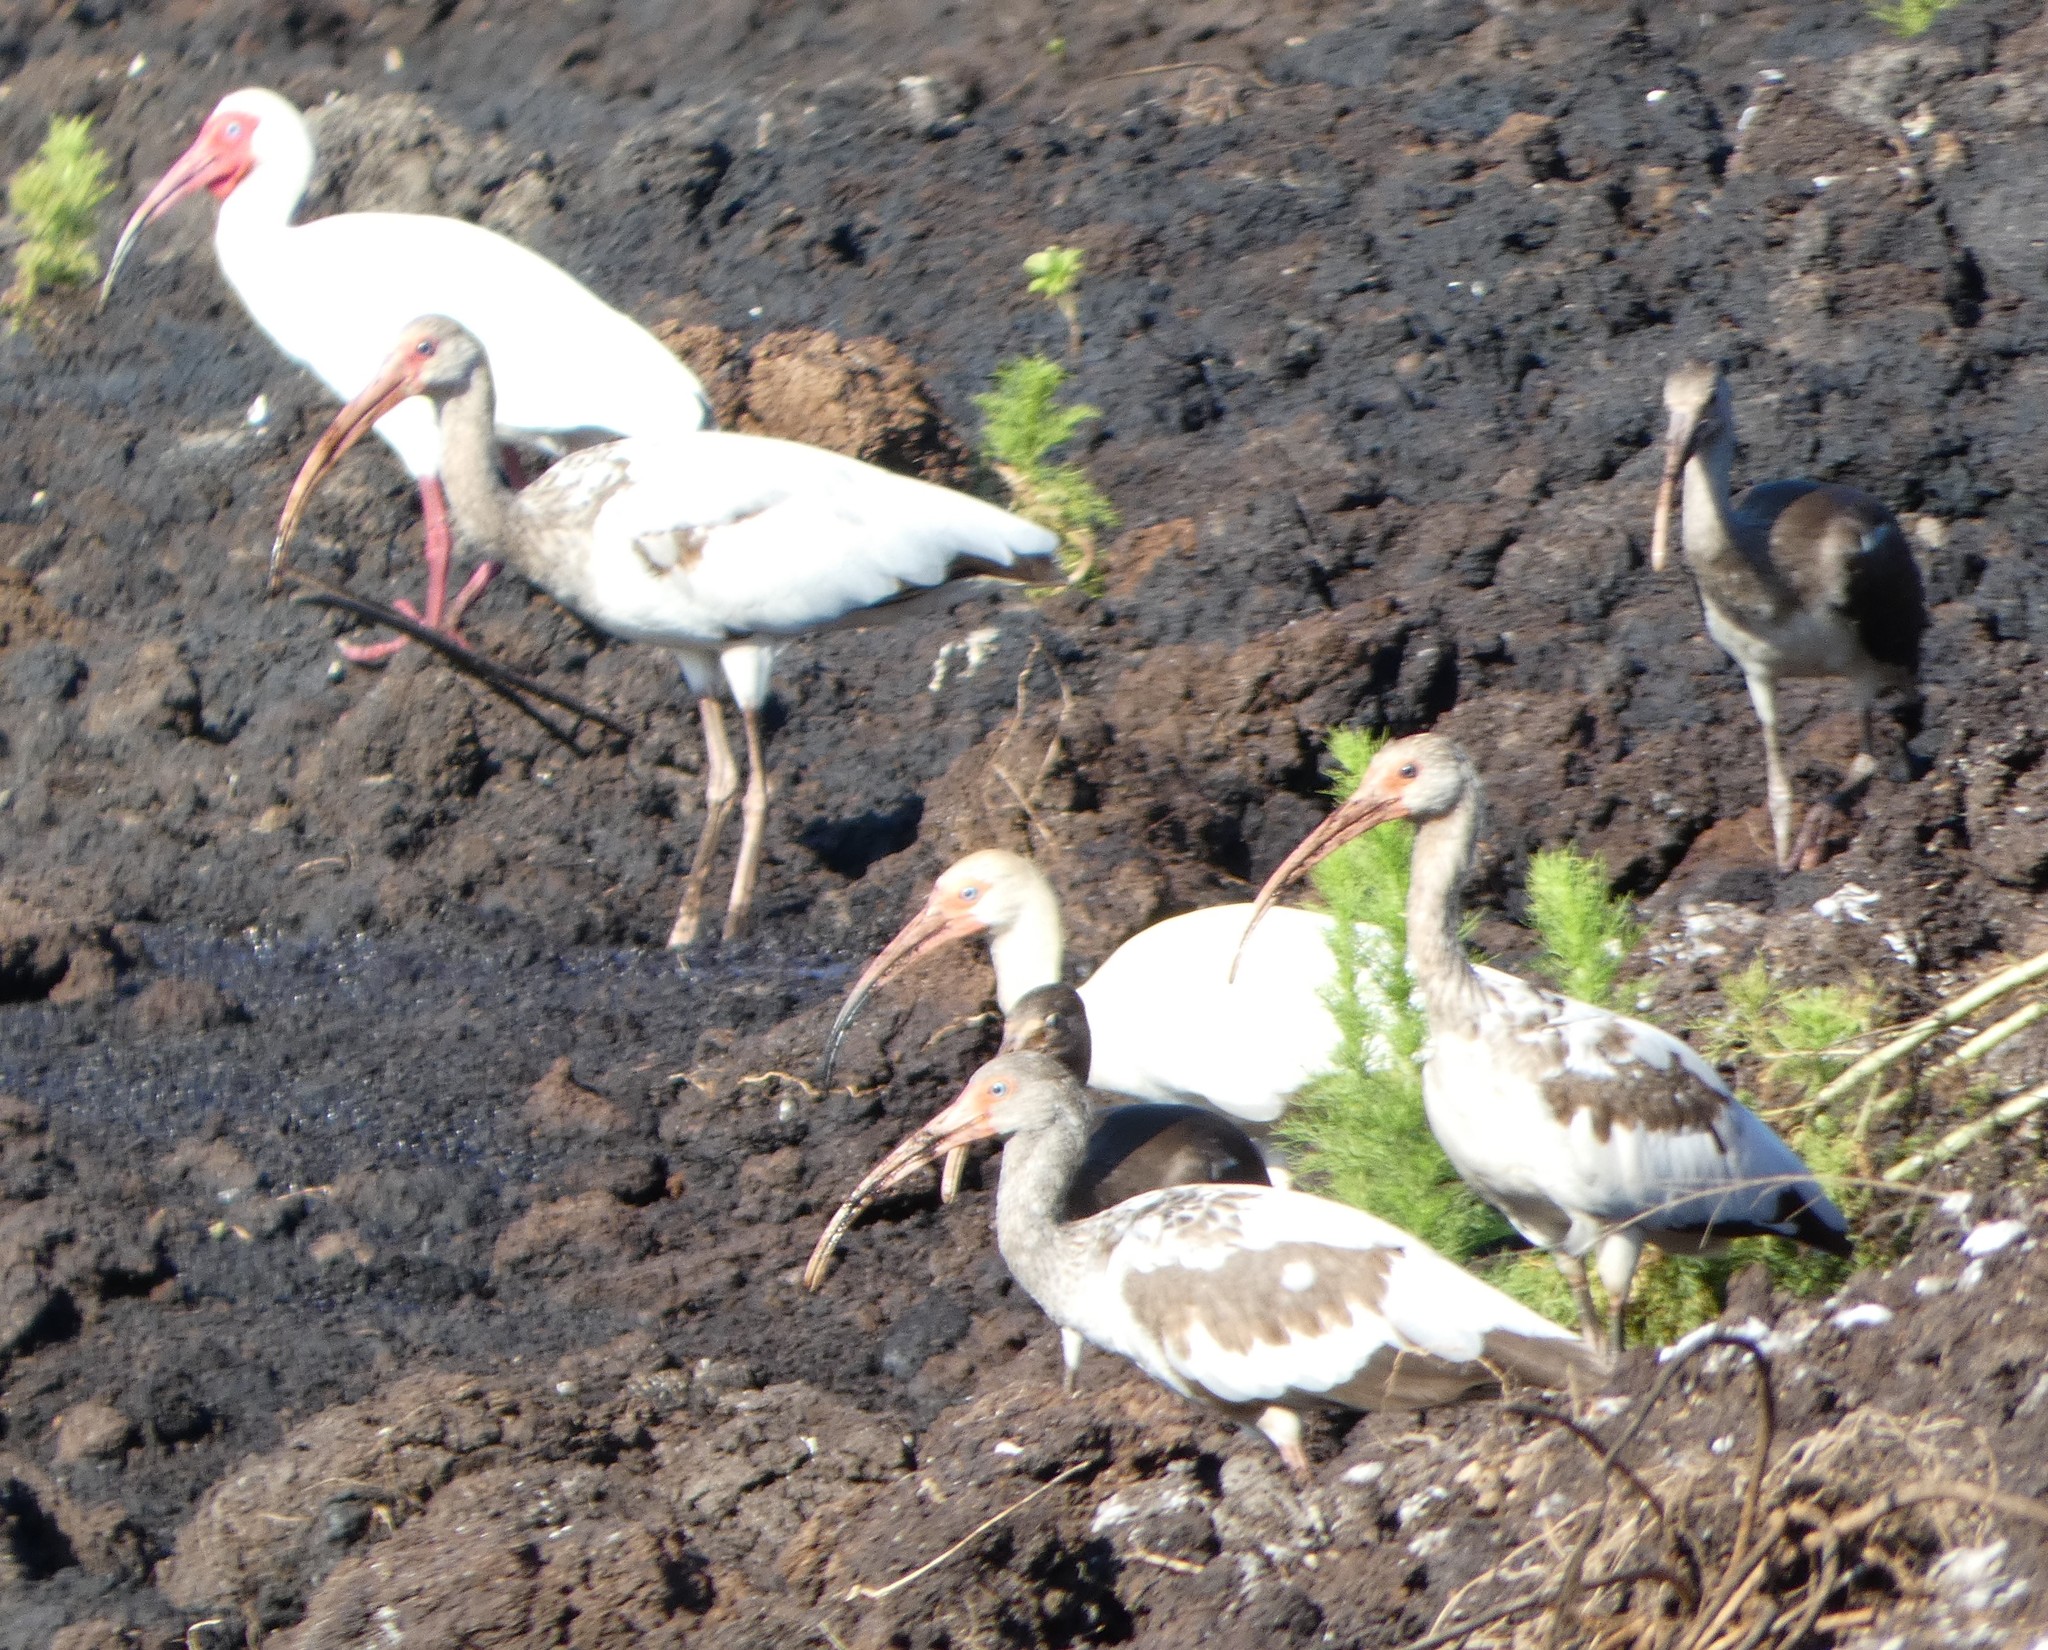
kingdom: Animalia
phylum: Chordata
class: Aves
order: Pelecaniformes
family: Threskiornithidae
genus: Eudocimus
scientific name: Eudocimus albus
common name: White ibis
